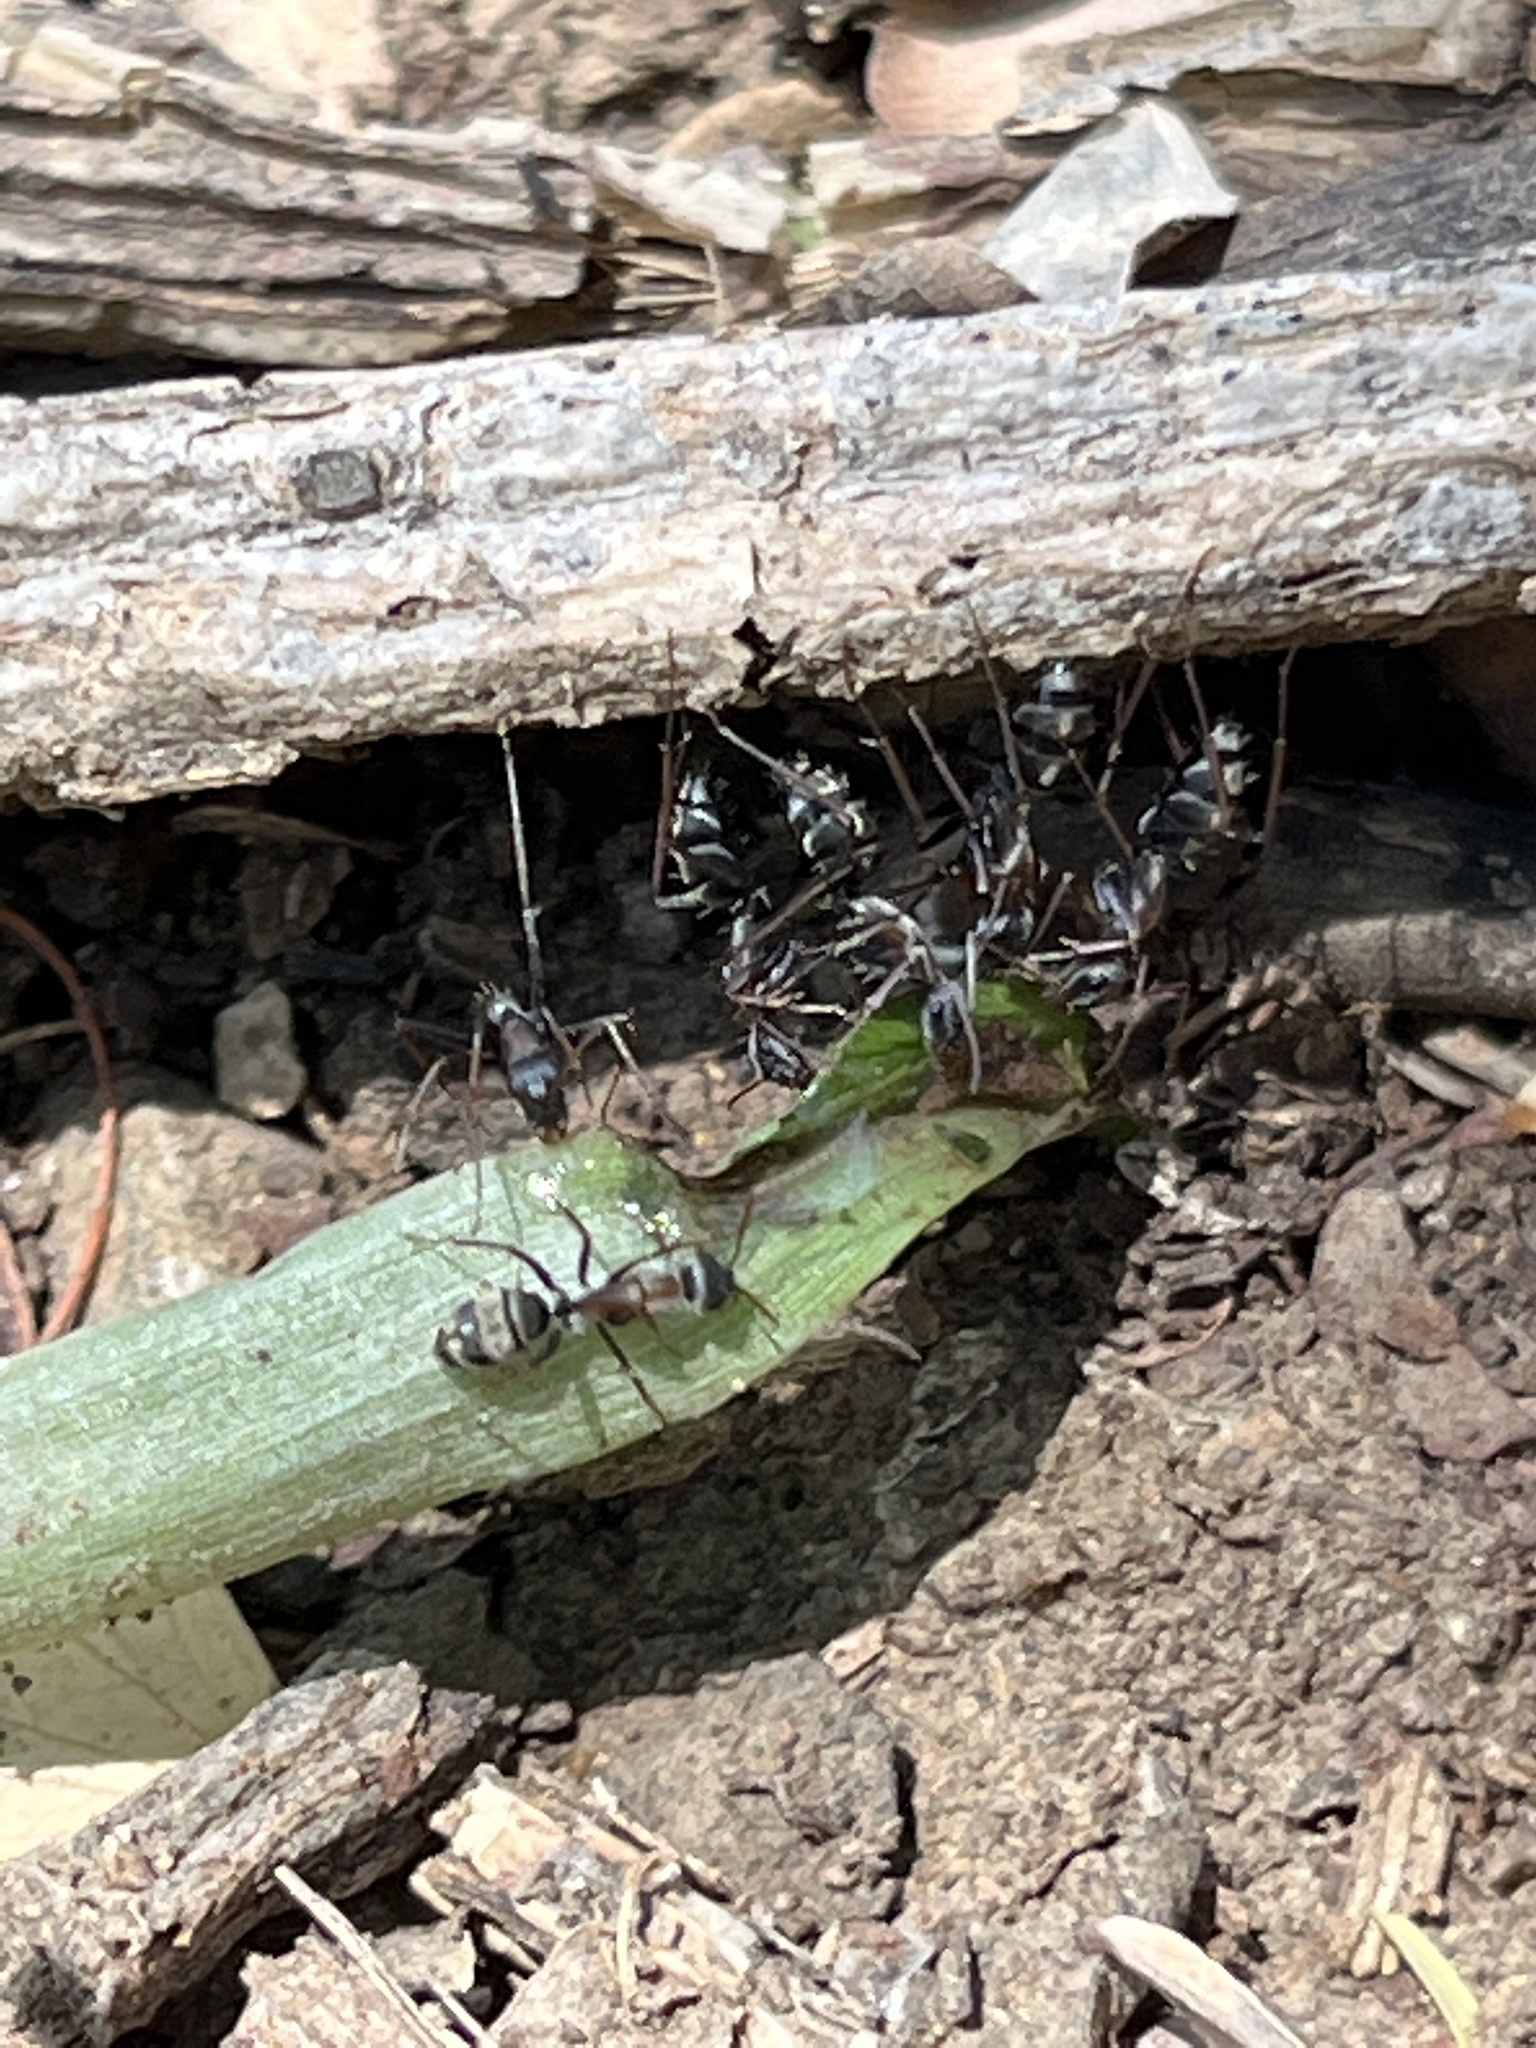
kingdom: Animalia
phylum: Arthropoda
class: Insecta
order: Hymenoptera
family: Formicidae
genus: Camponotus
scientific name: Camponotus flavomarginatus
